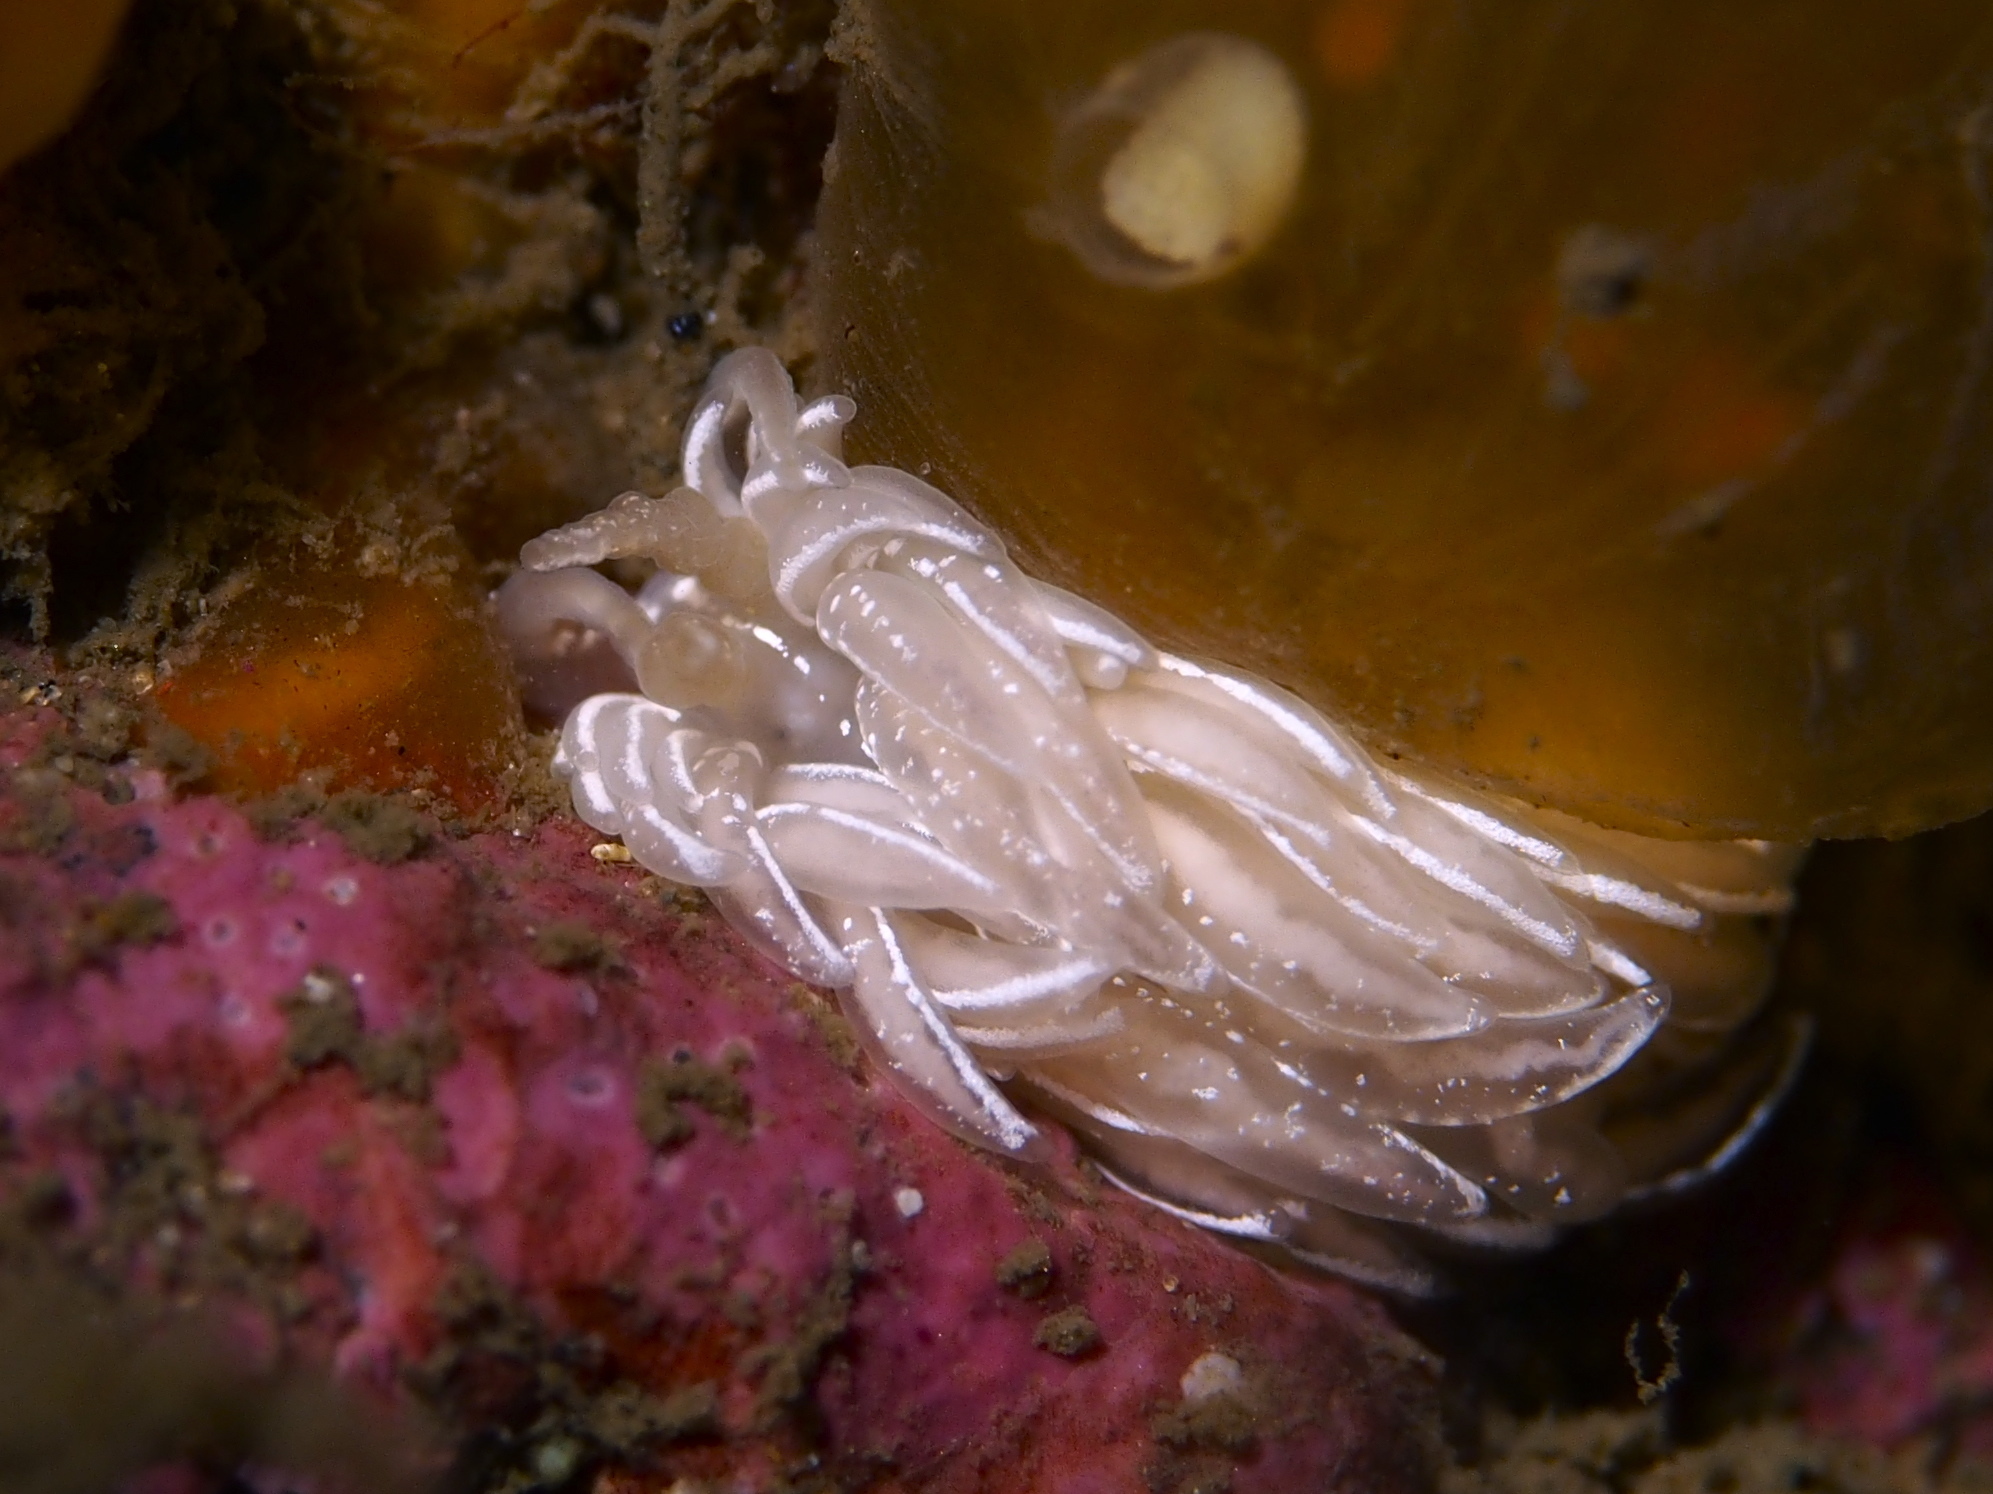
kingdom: Animalia
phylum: Mollusca
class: Gastropoda
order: Nudibranchia
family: Facelinidae
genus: Favorinus
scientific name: Favorinus blianus
